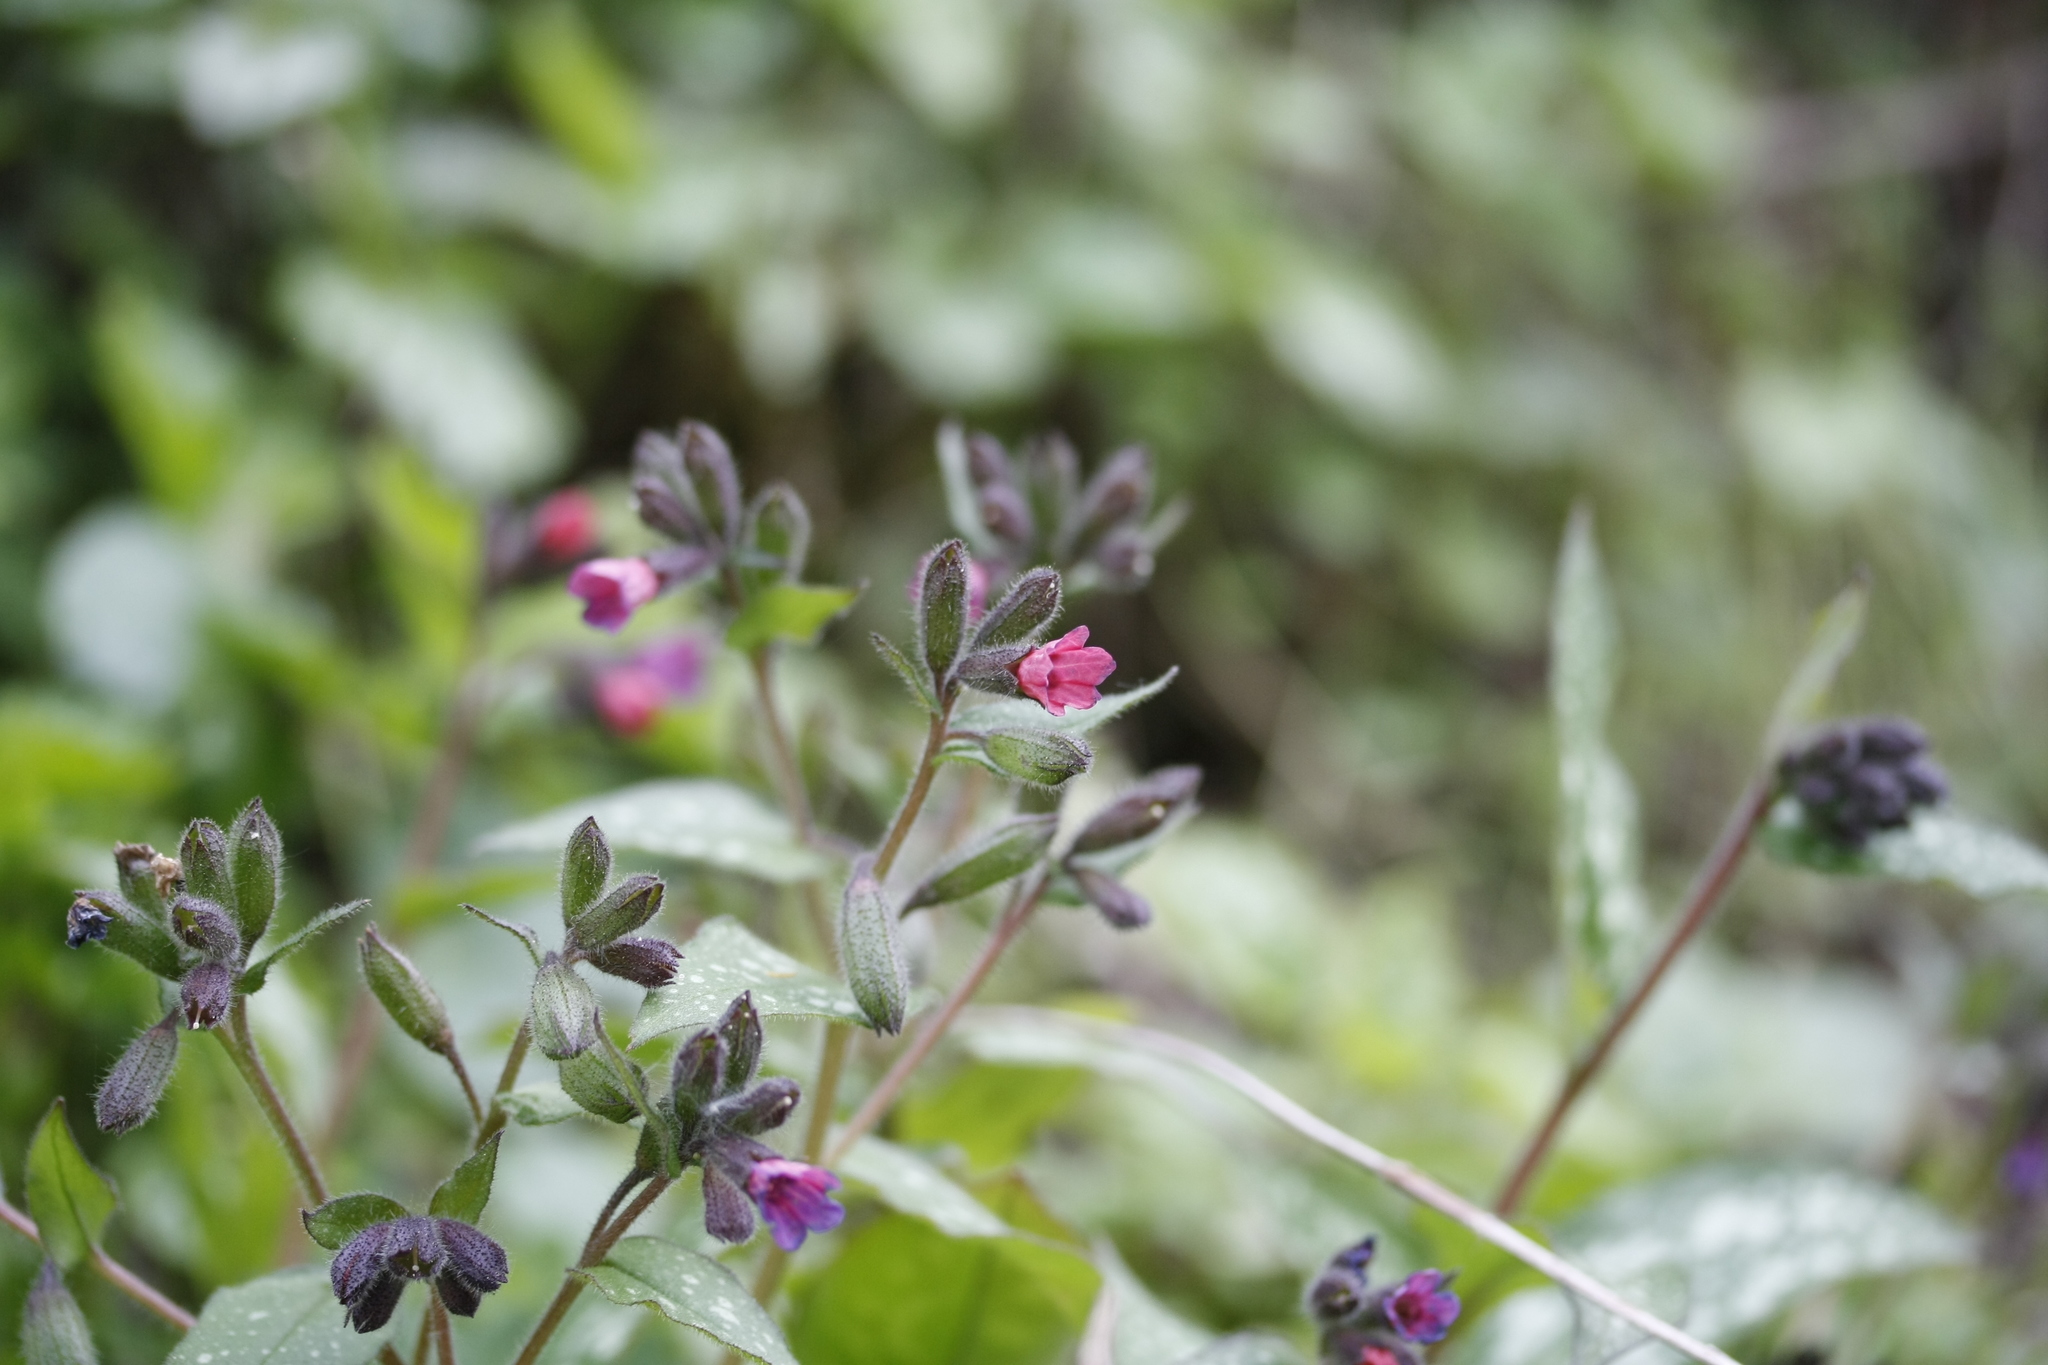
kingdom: Plantae
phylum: Tracheophyta
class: Magnoliopsida
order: Boraginales
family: Boraginaceae
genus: Pulmonaria
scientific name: Pulmonaria officinalis
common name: Lungwort
